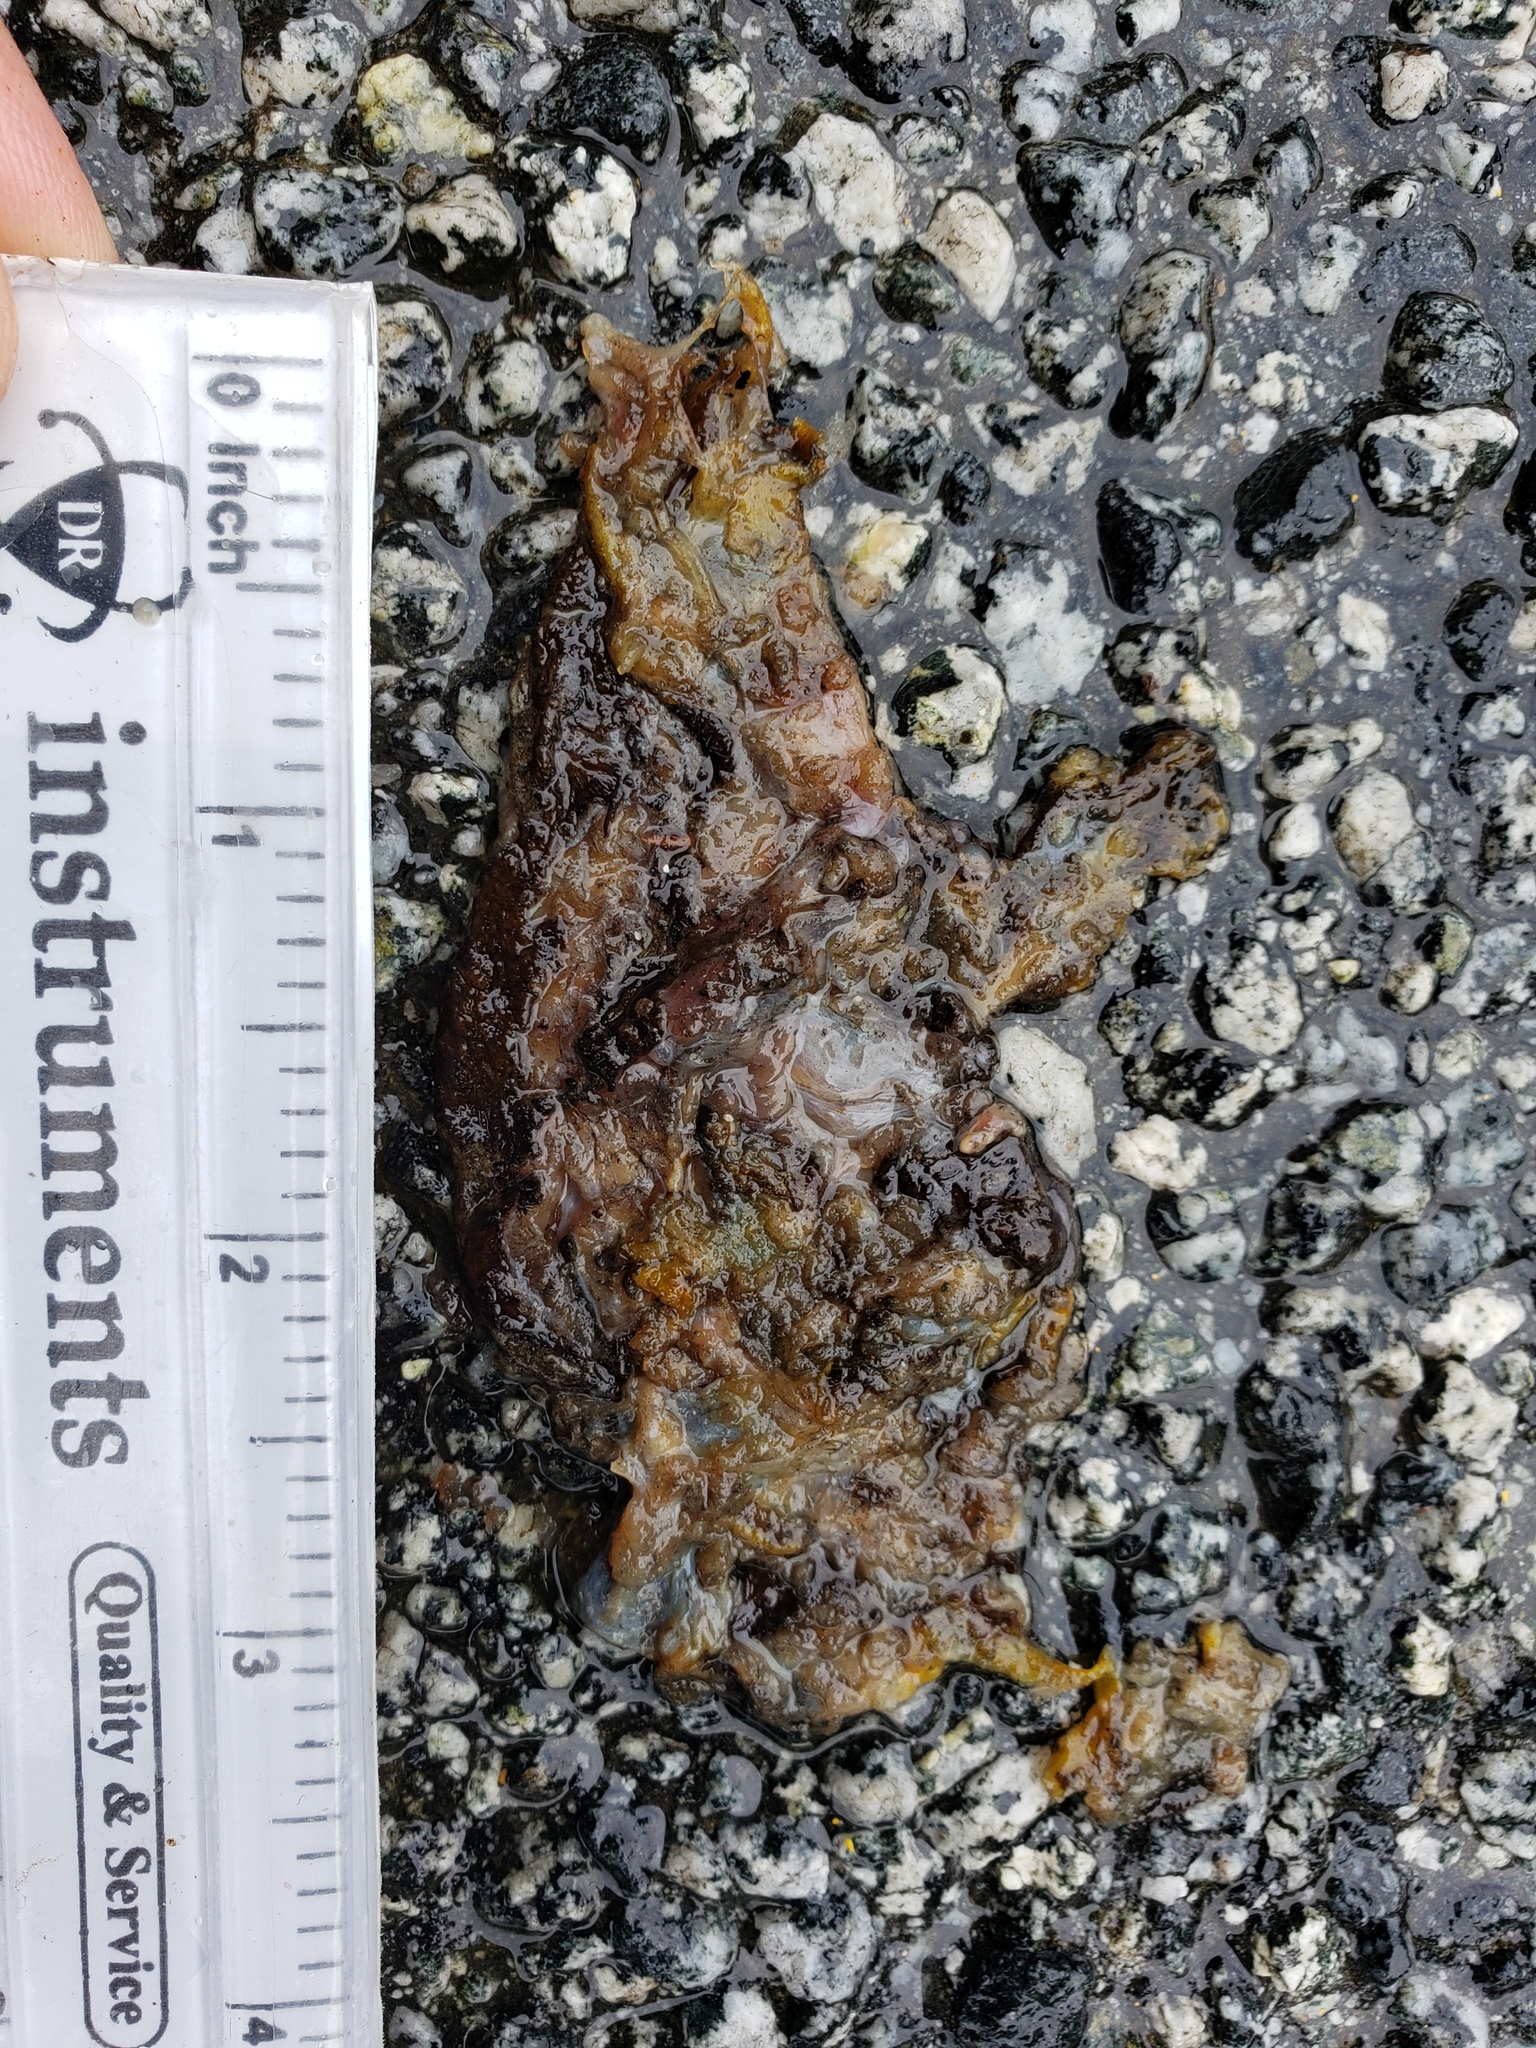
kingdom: Animalia
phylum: Chordata
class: Amphibia
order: Caudata
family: Salamandridae
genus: Taricha
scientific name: Taricha
